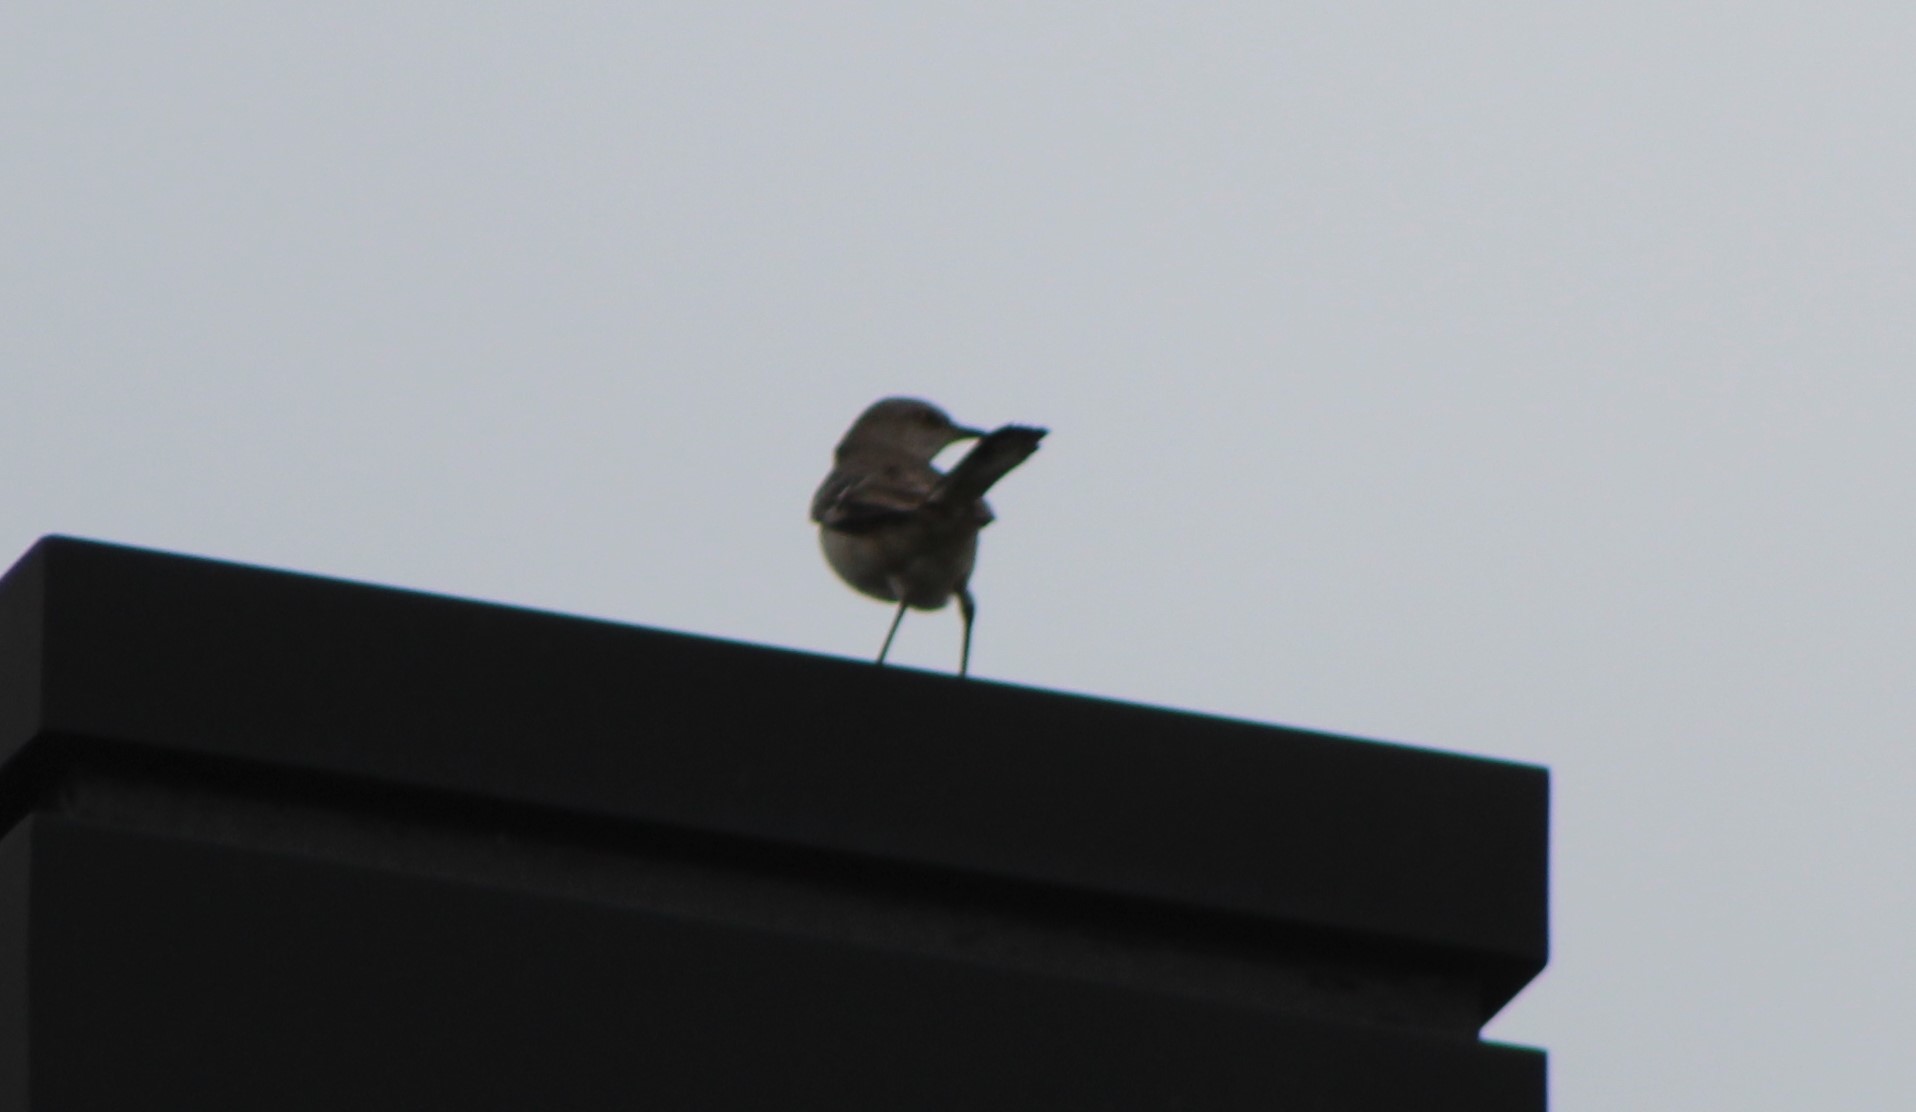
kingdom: Animalia
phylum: Chordata
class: Aves
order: Passeriformes
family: Mimidae
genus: Mimus
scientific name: Mimus polyglottos
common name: Northern mockingbird
